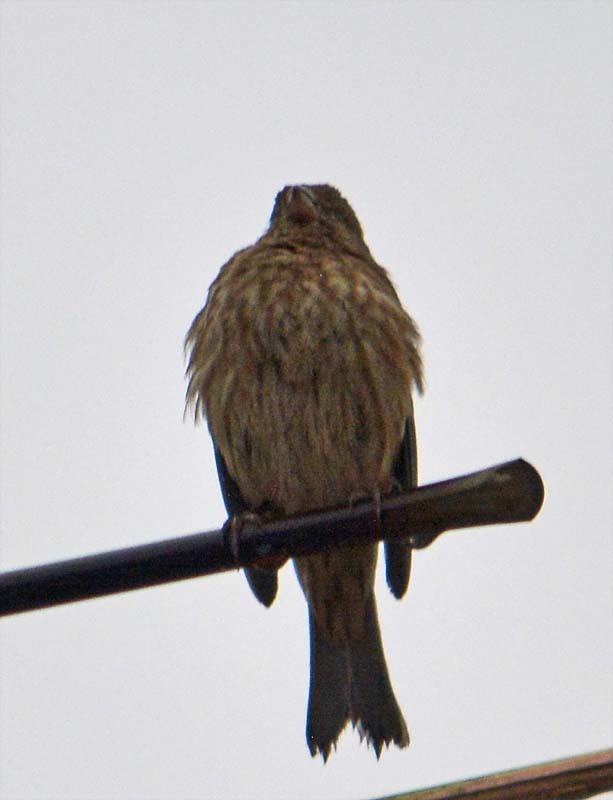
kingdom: Animalia
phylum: Chordata
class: Aves
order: Passeriformes
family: Fringillidae
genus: Haemorhous
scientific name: Haemorhous mexicanus
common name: House finch
